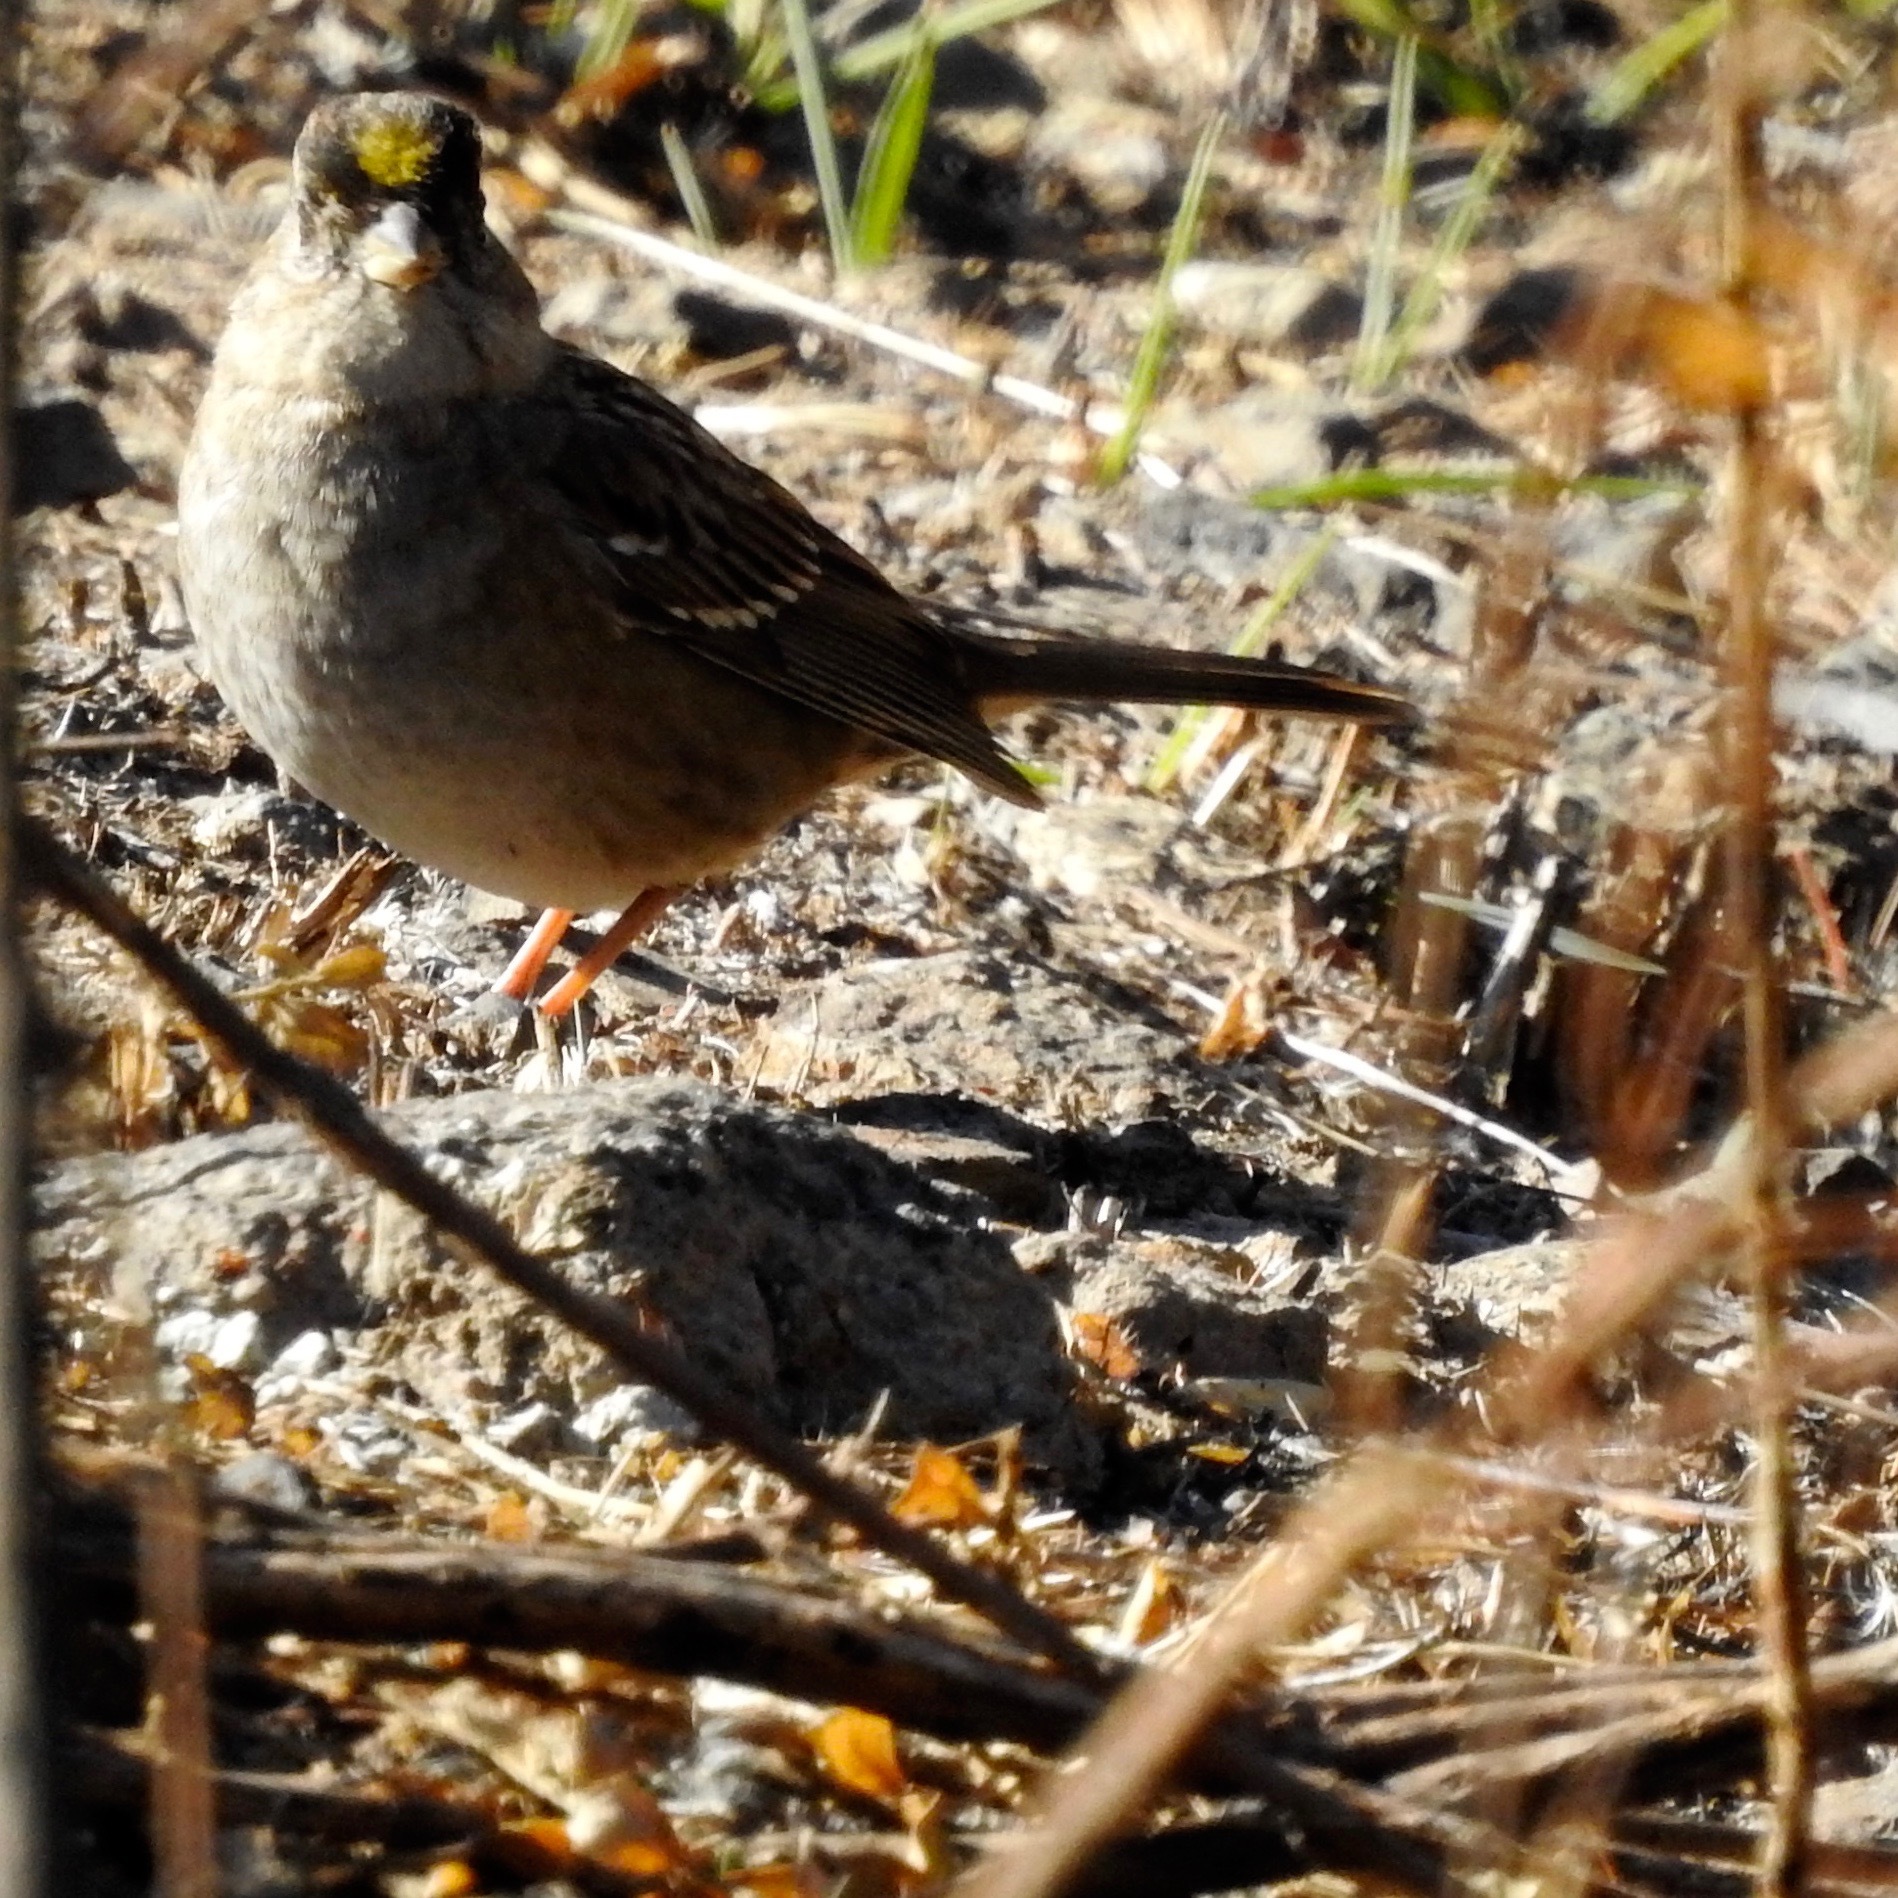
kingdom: Animalia
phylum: Chordata
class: Aves
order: Passeriformes
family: Passerellidae
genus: Zonotrichia
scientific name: Zonotrichia atricapilla
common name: Golden-crowned sparrow
